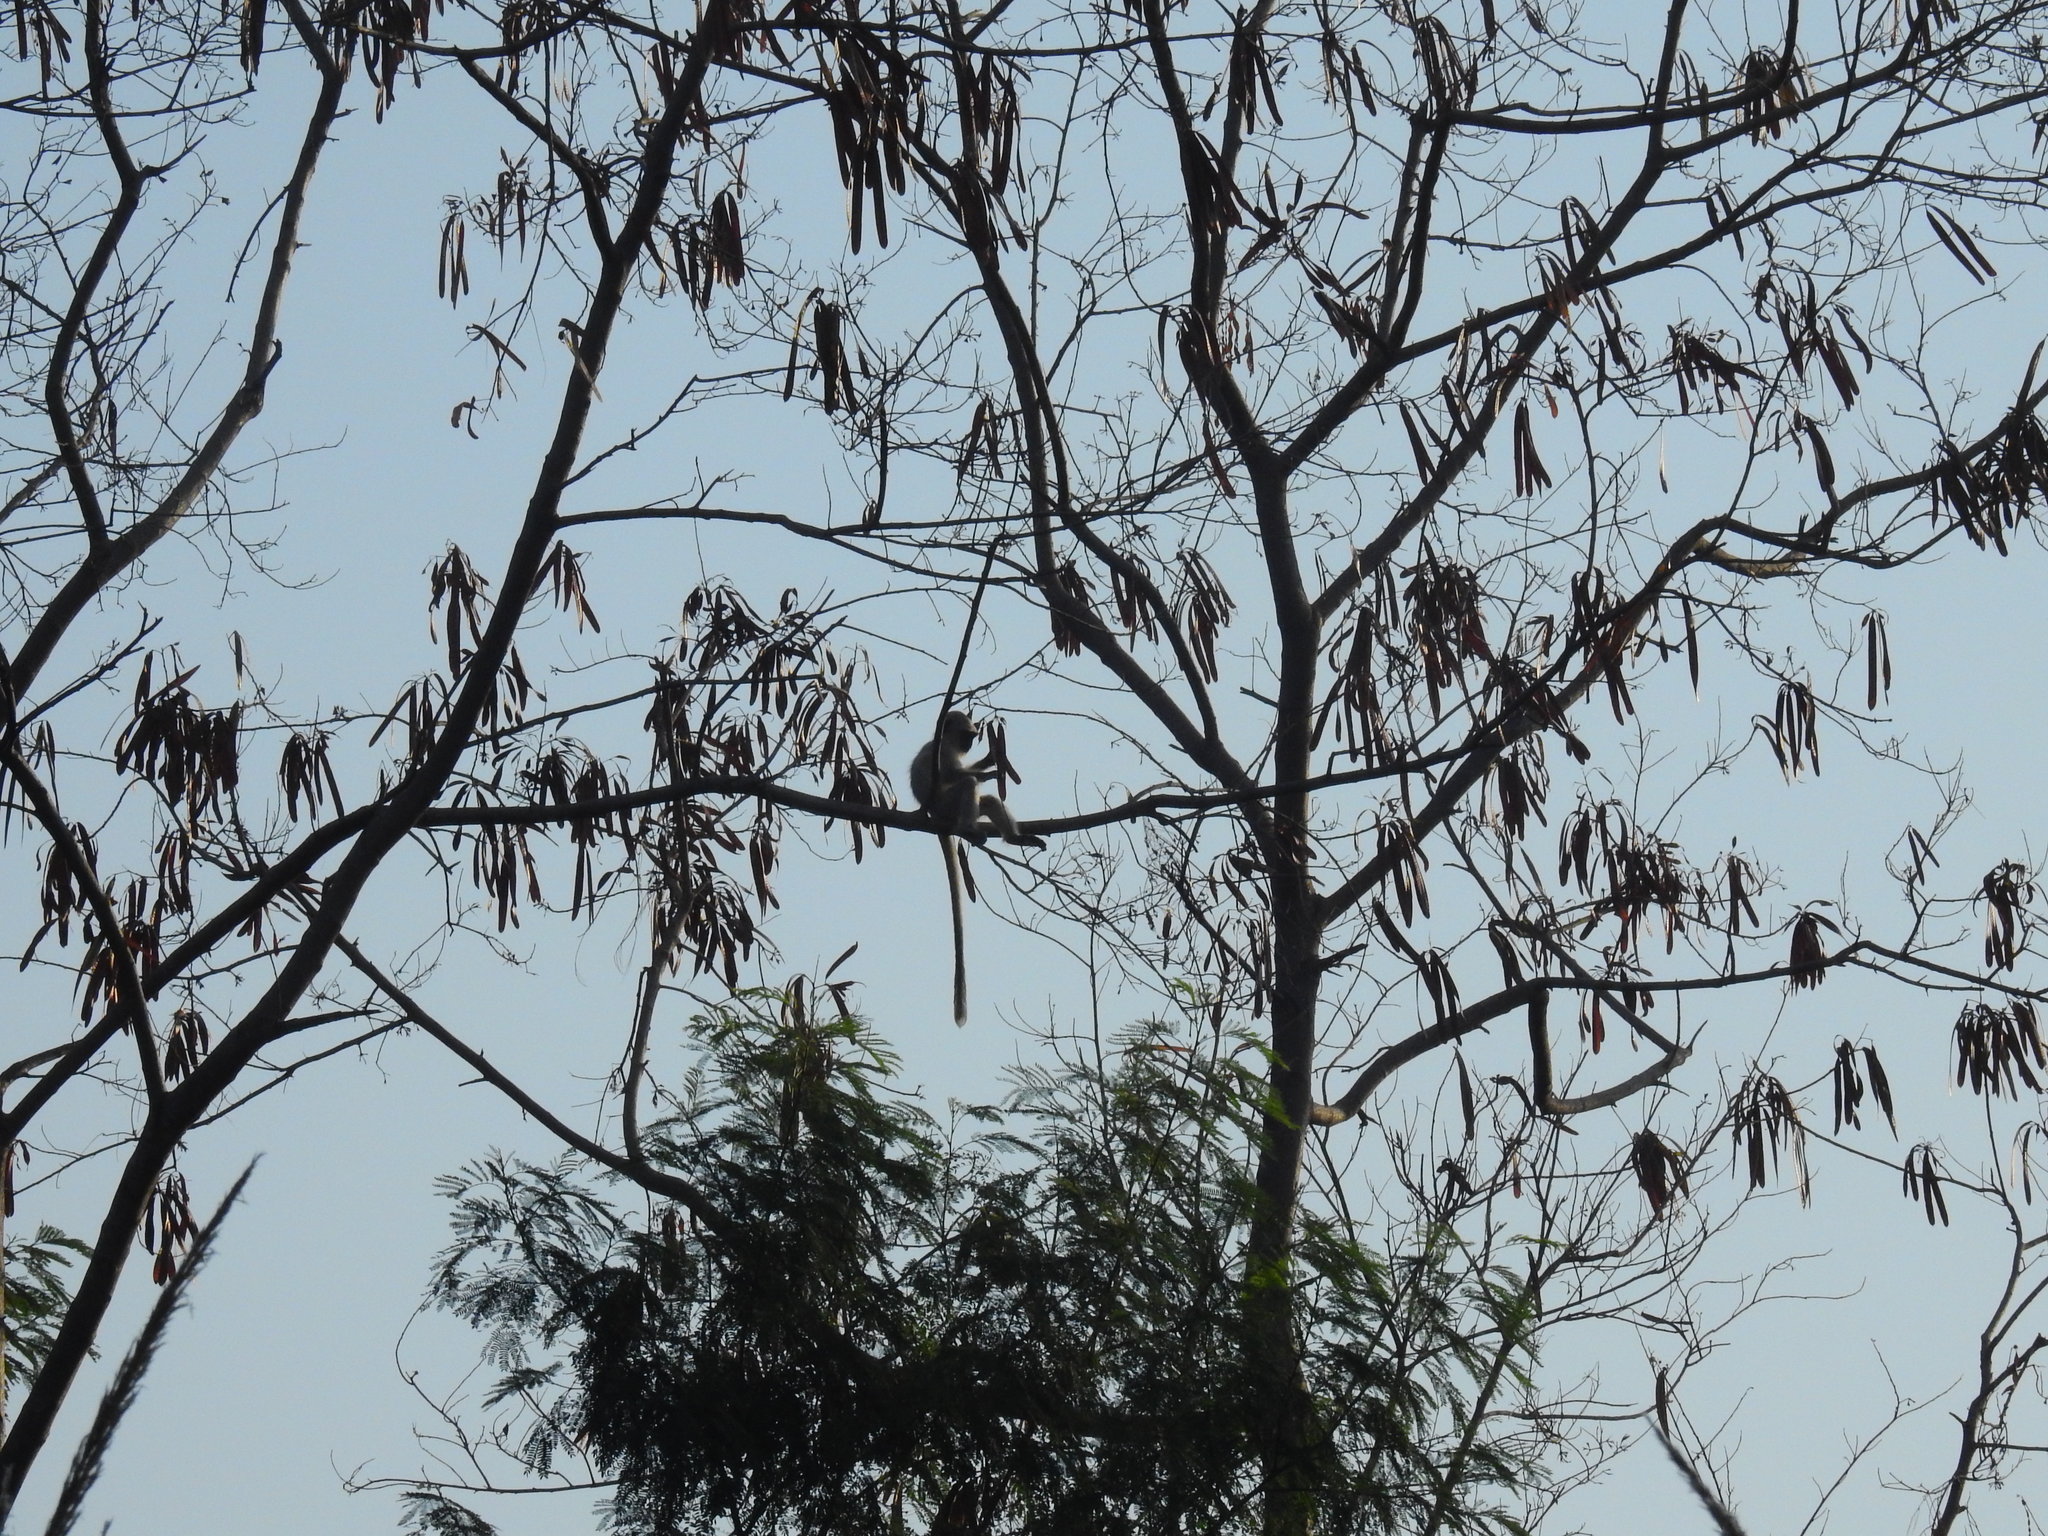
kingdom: Animalia
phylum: Chordata
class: Mammalia
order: Primates
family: Cercopithecidae
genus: Semnopithecus
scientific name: Semnopithecus entellus
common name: Northern plains gray langur
